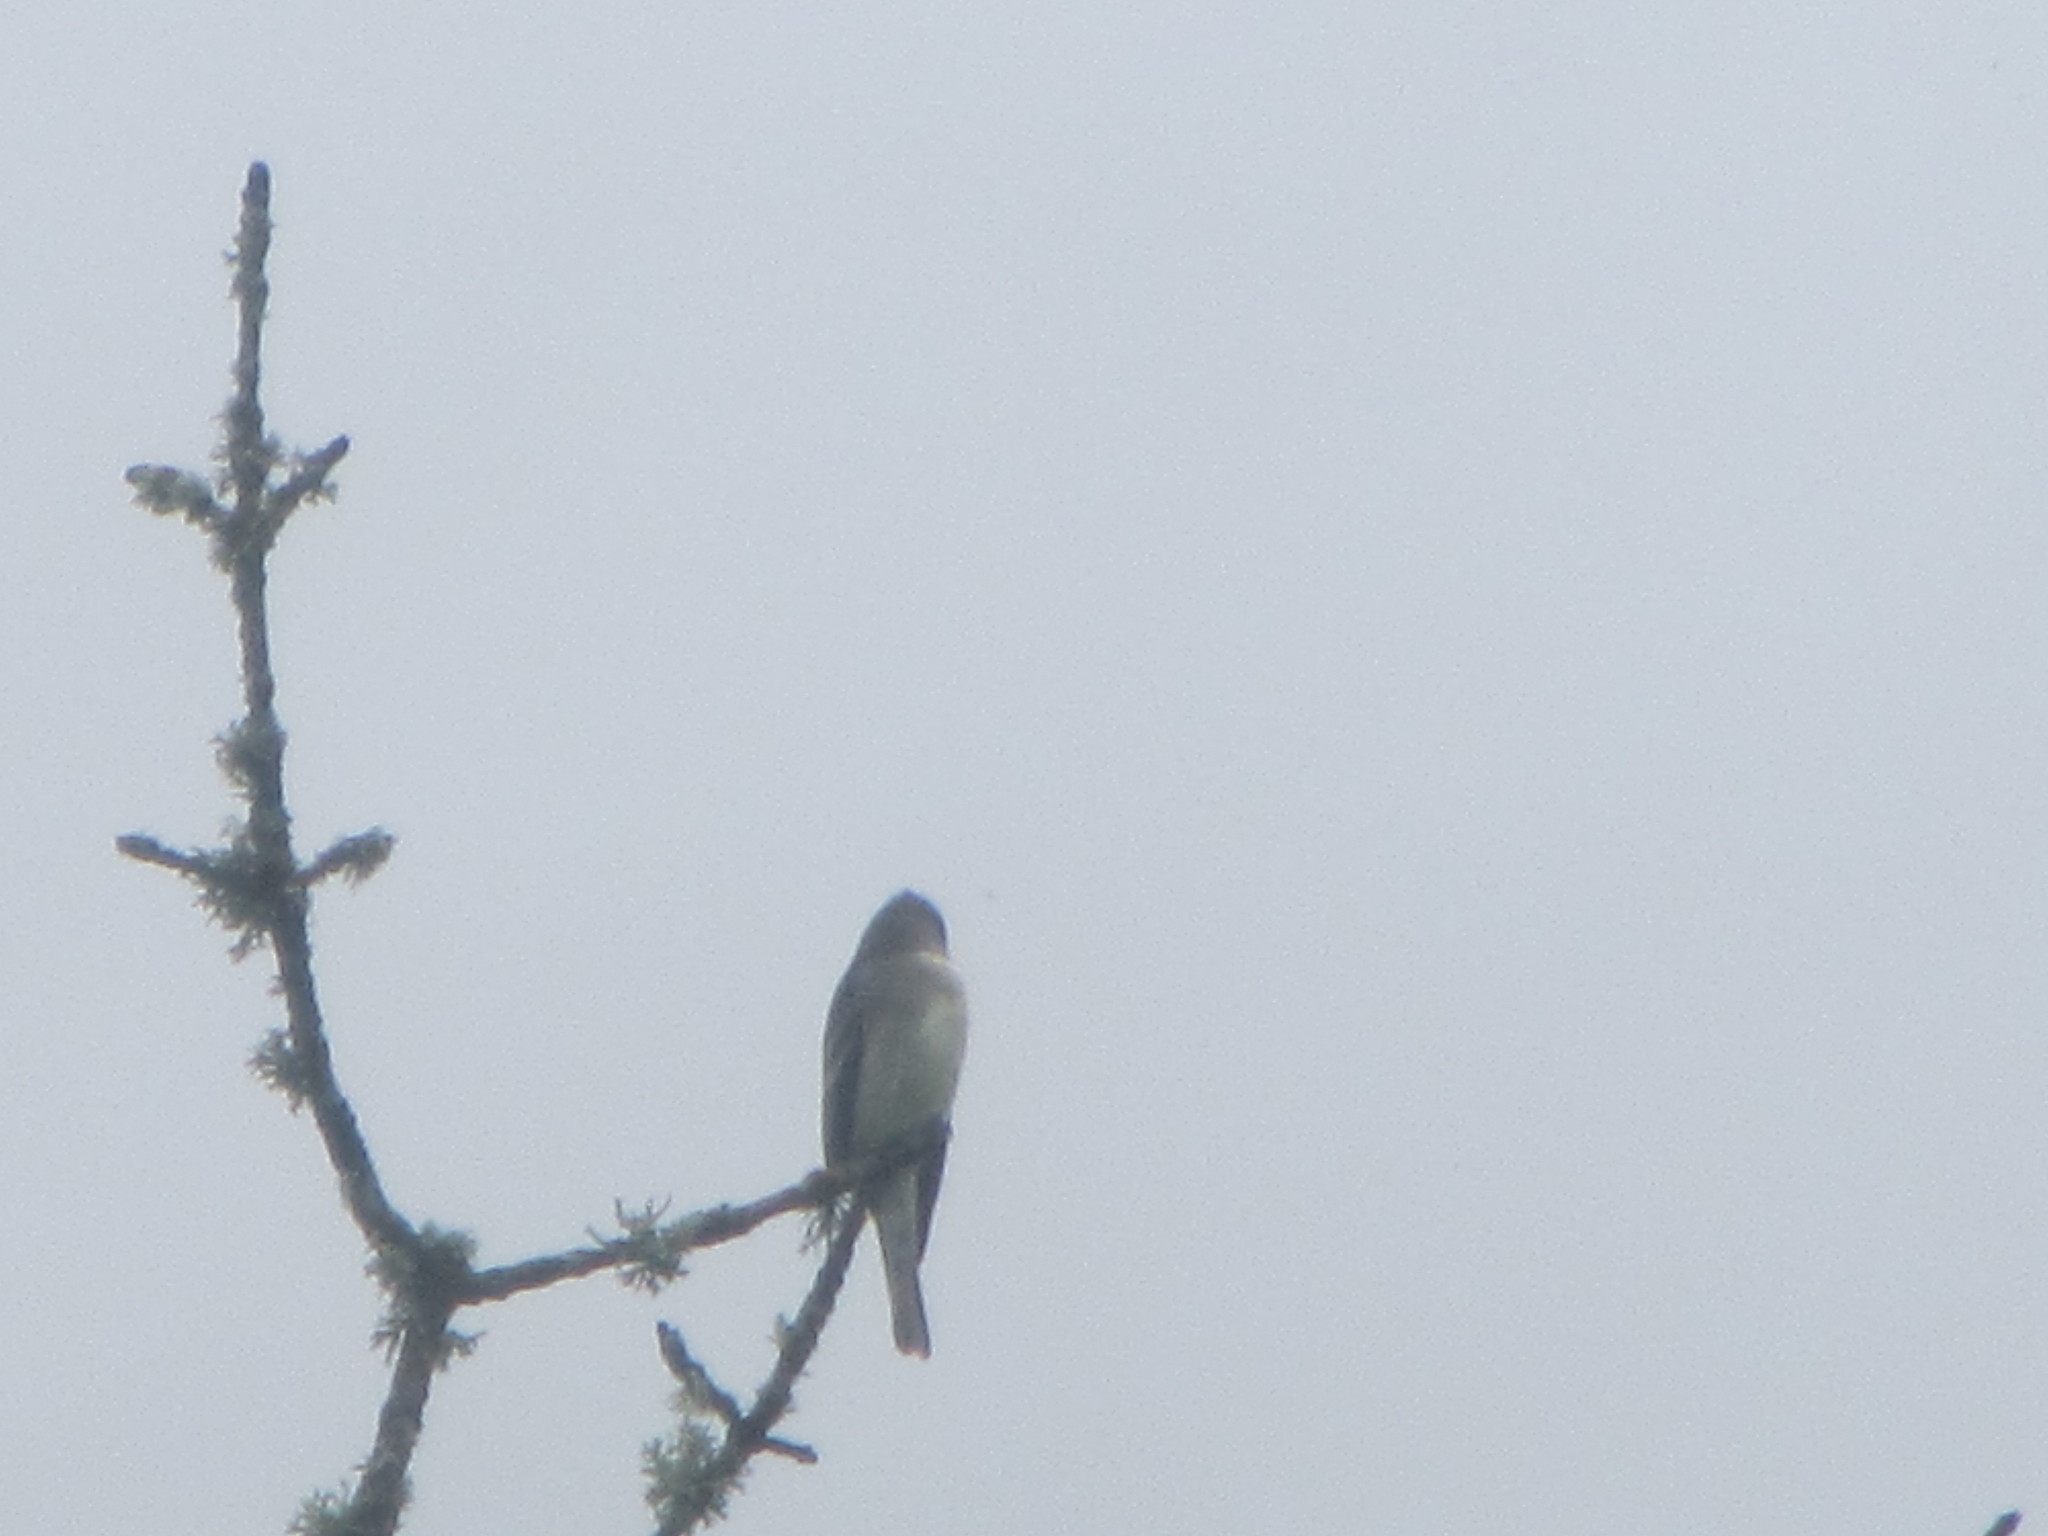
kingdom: Animalia
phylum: Chordata
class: Aves
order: Passeriformes
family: Tyrannidae
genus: Contopus
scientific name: Contopus sordidulus
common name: Western wood-pewee
